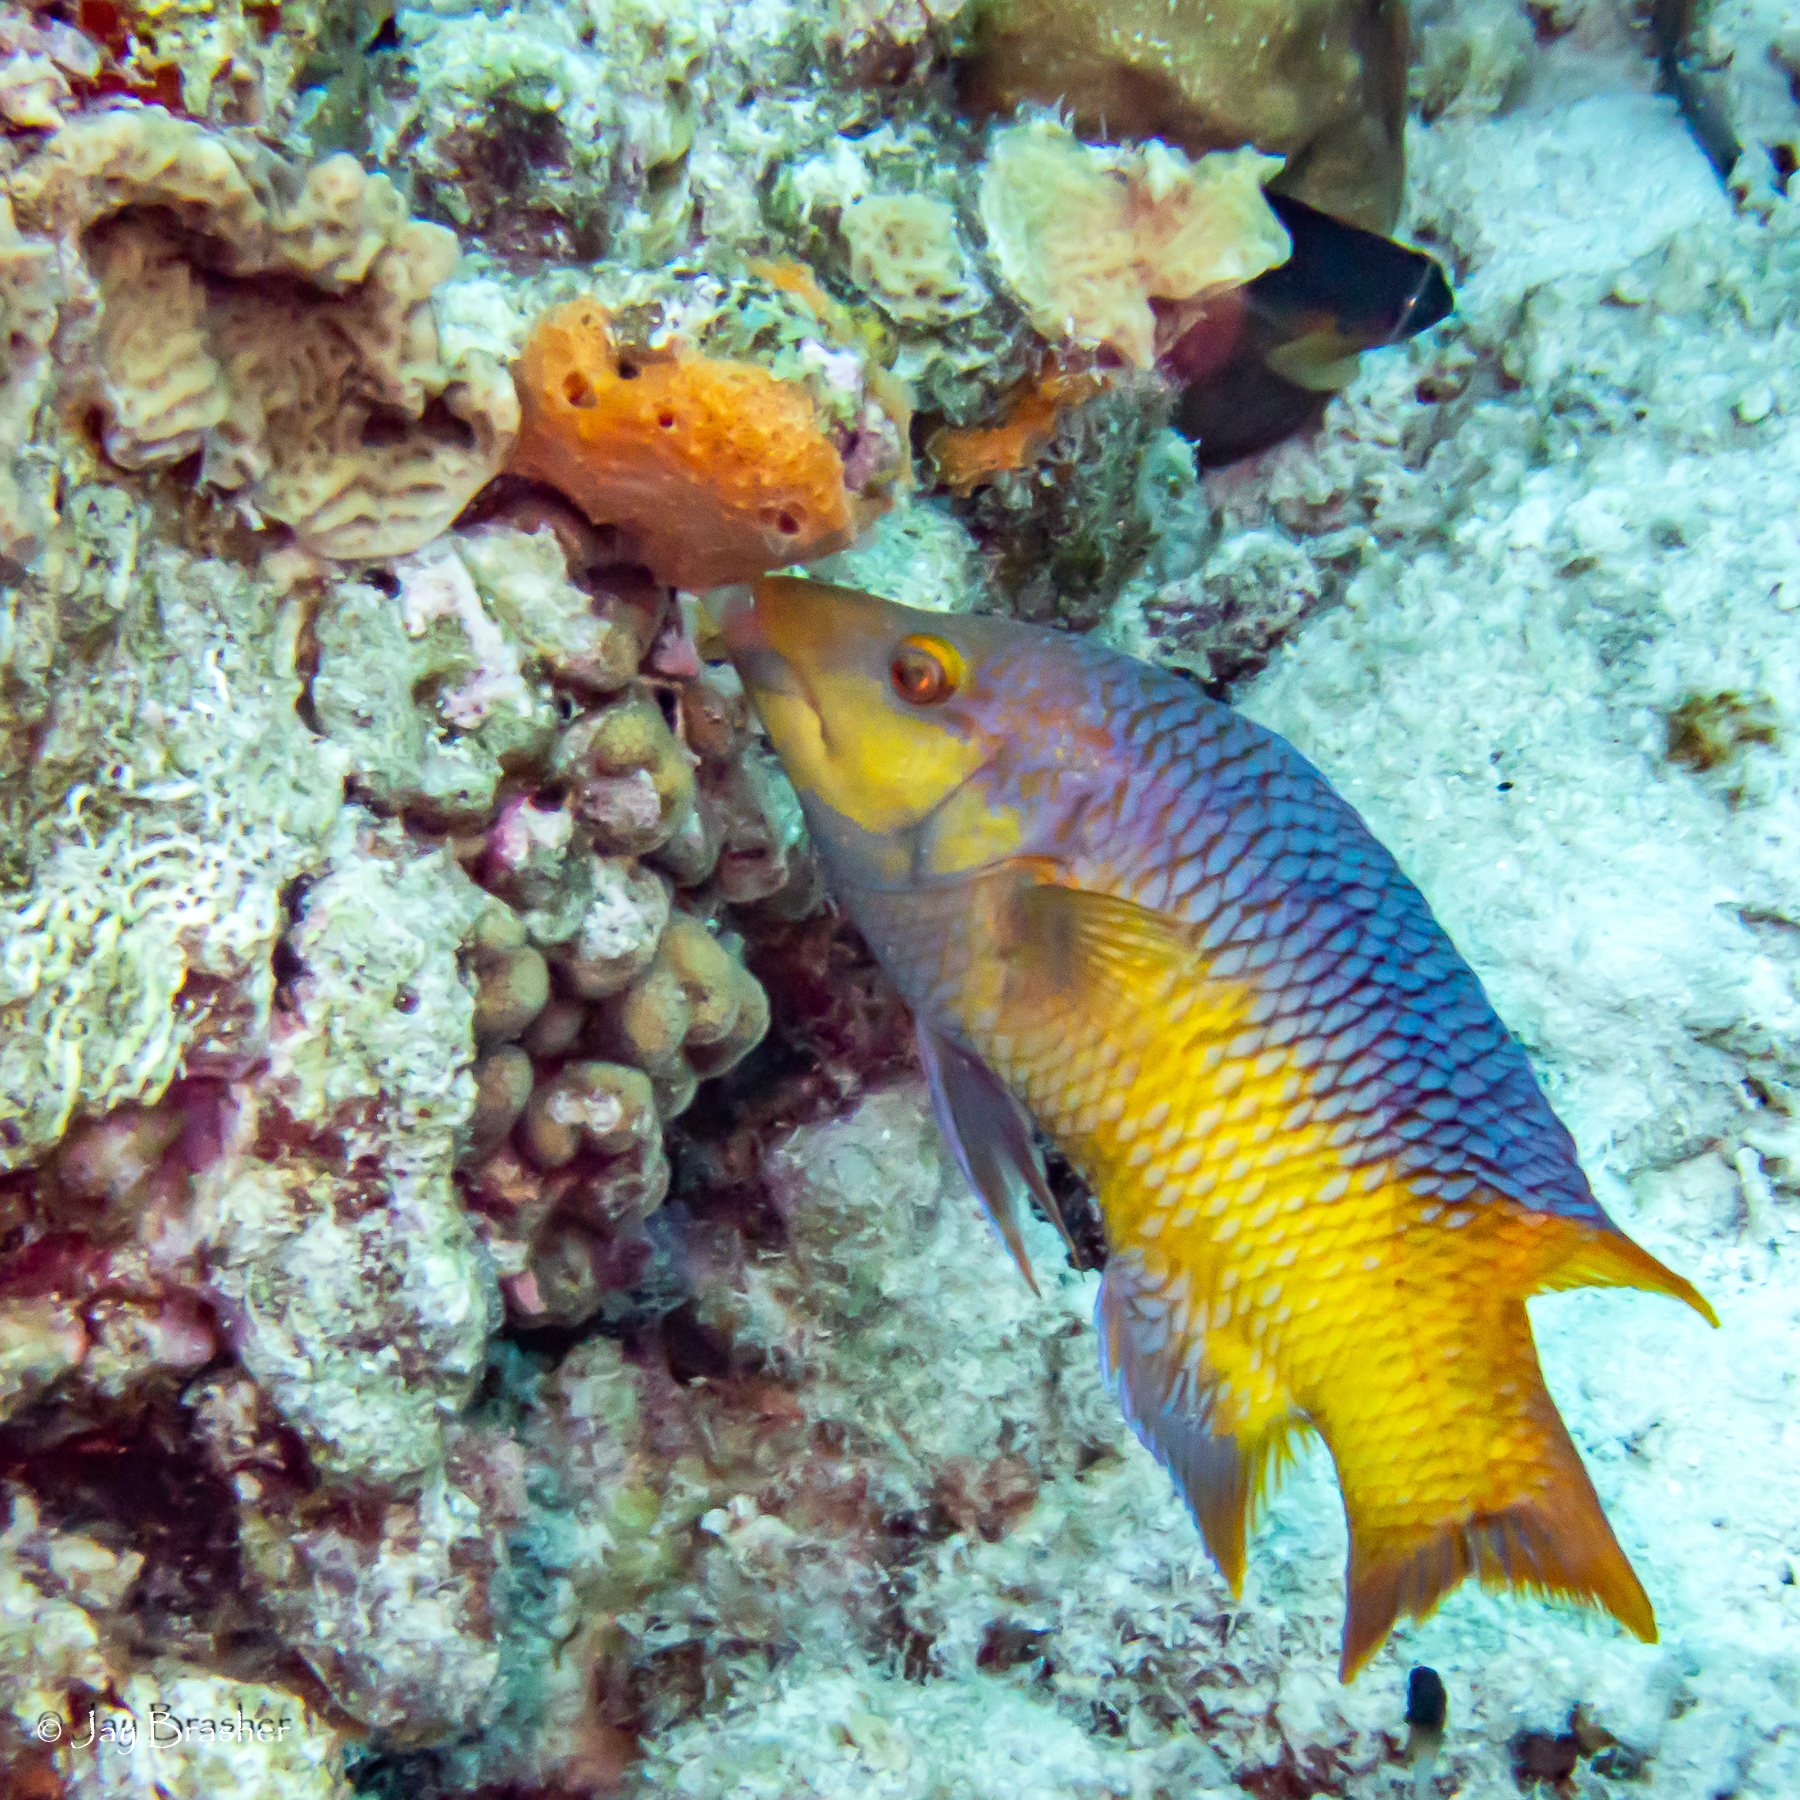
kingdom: Animalia
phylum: Porifera
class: Demospongiae
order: Scopalinida
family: Scopalinidae
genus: Scopalina
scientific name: Scopalina ruetzleri
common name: Orange lumpy encrusting sponge
